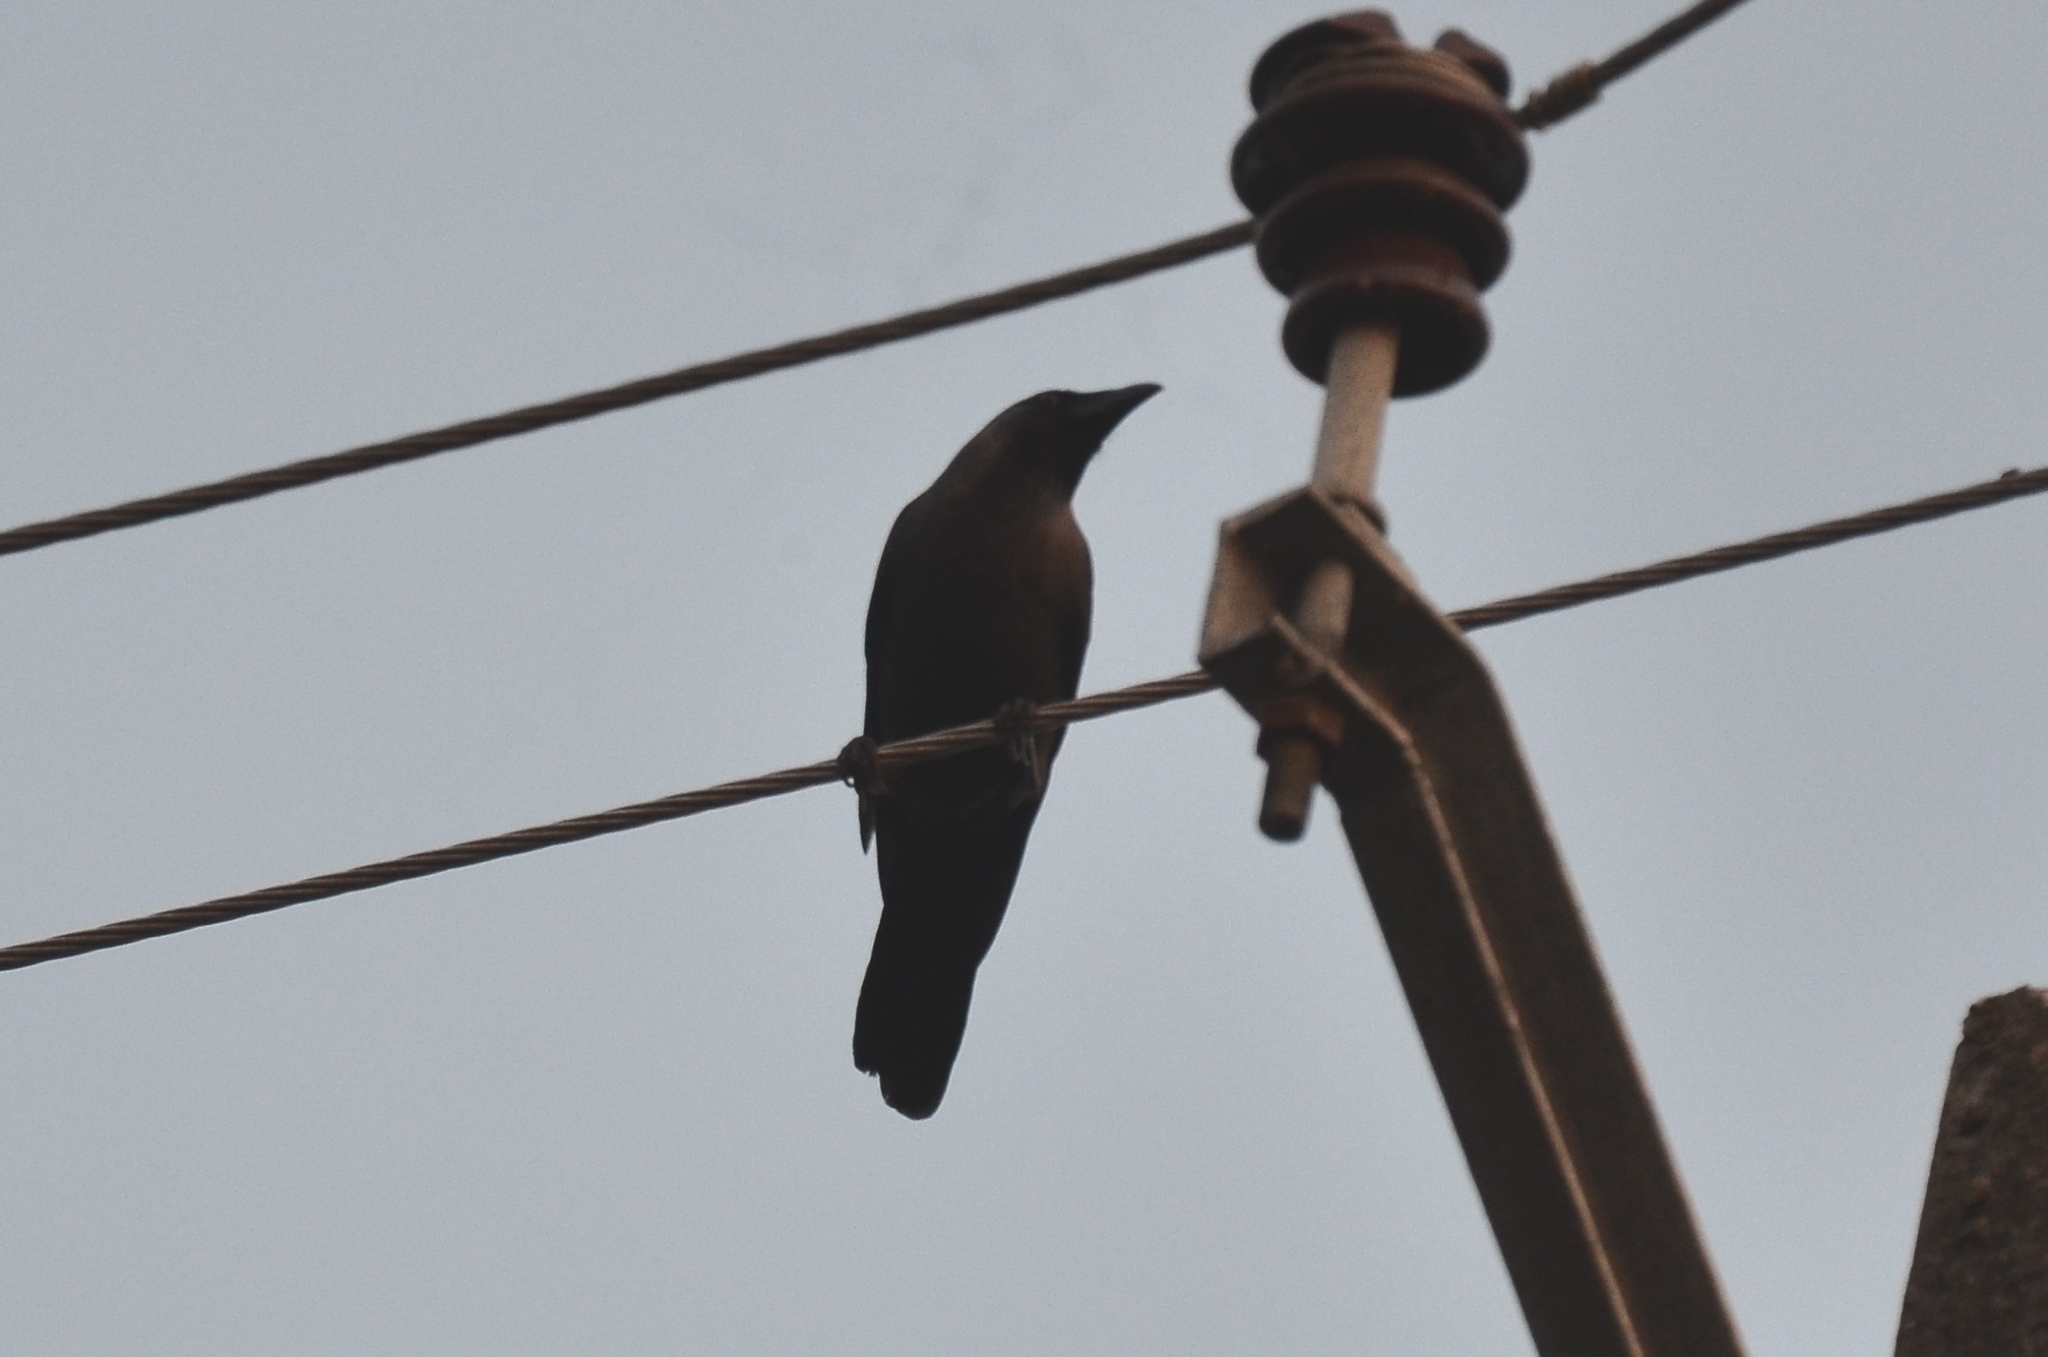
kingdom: Animalia
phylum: Chordata
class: Aves
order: Passeriformes
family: Corvidae
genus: Corvus
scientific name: Corvus splendens
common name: House crow
